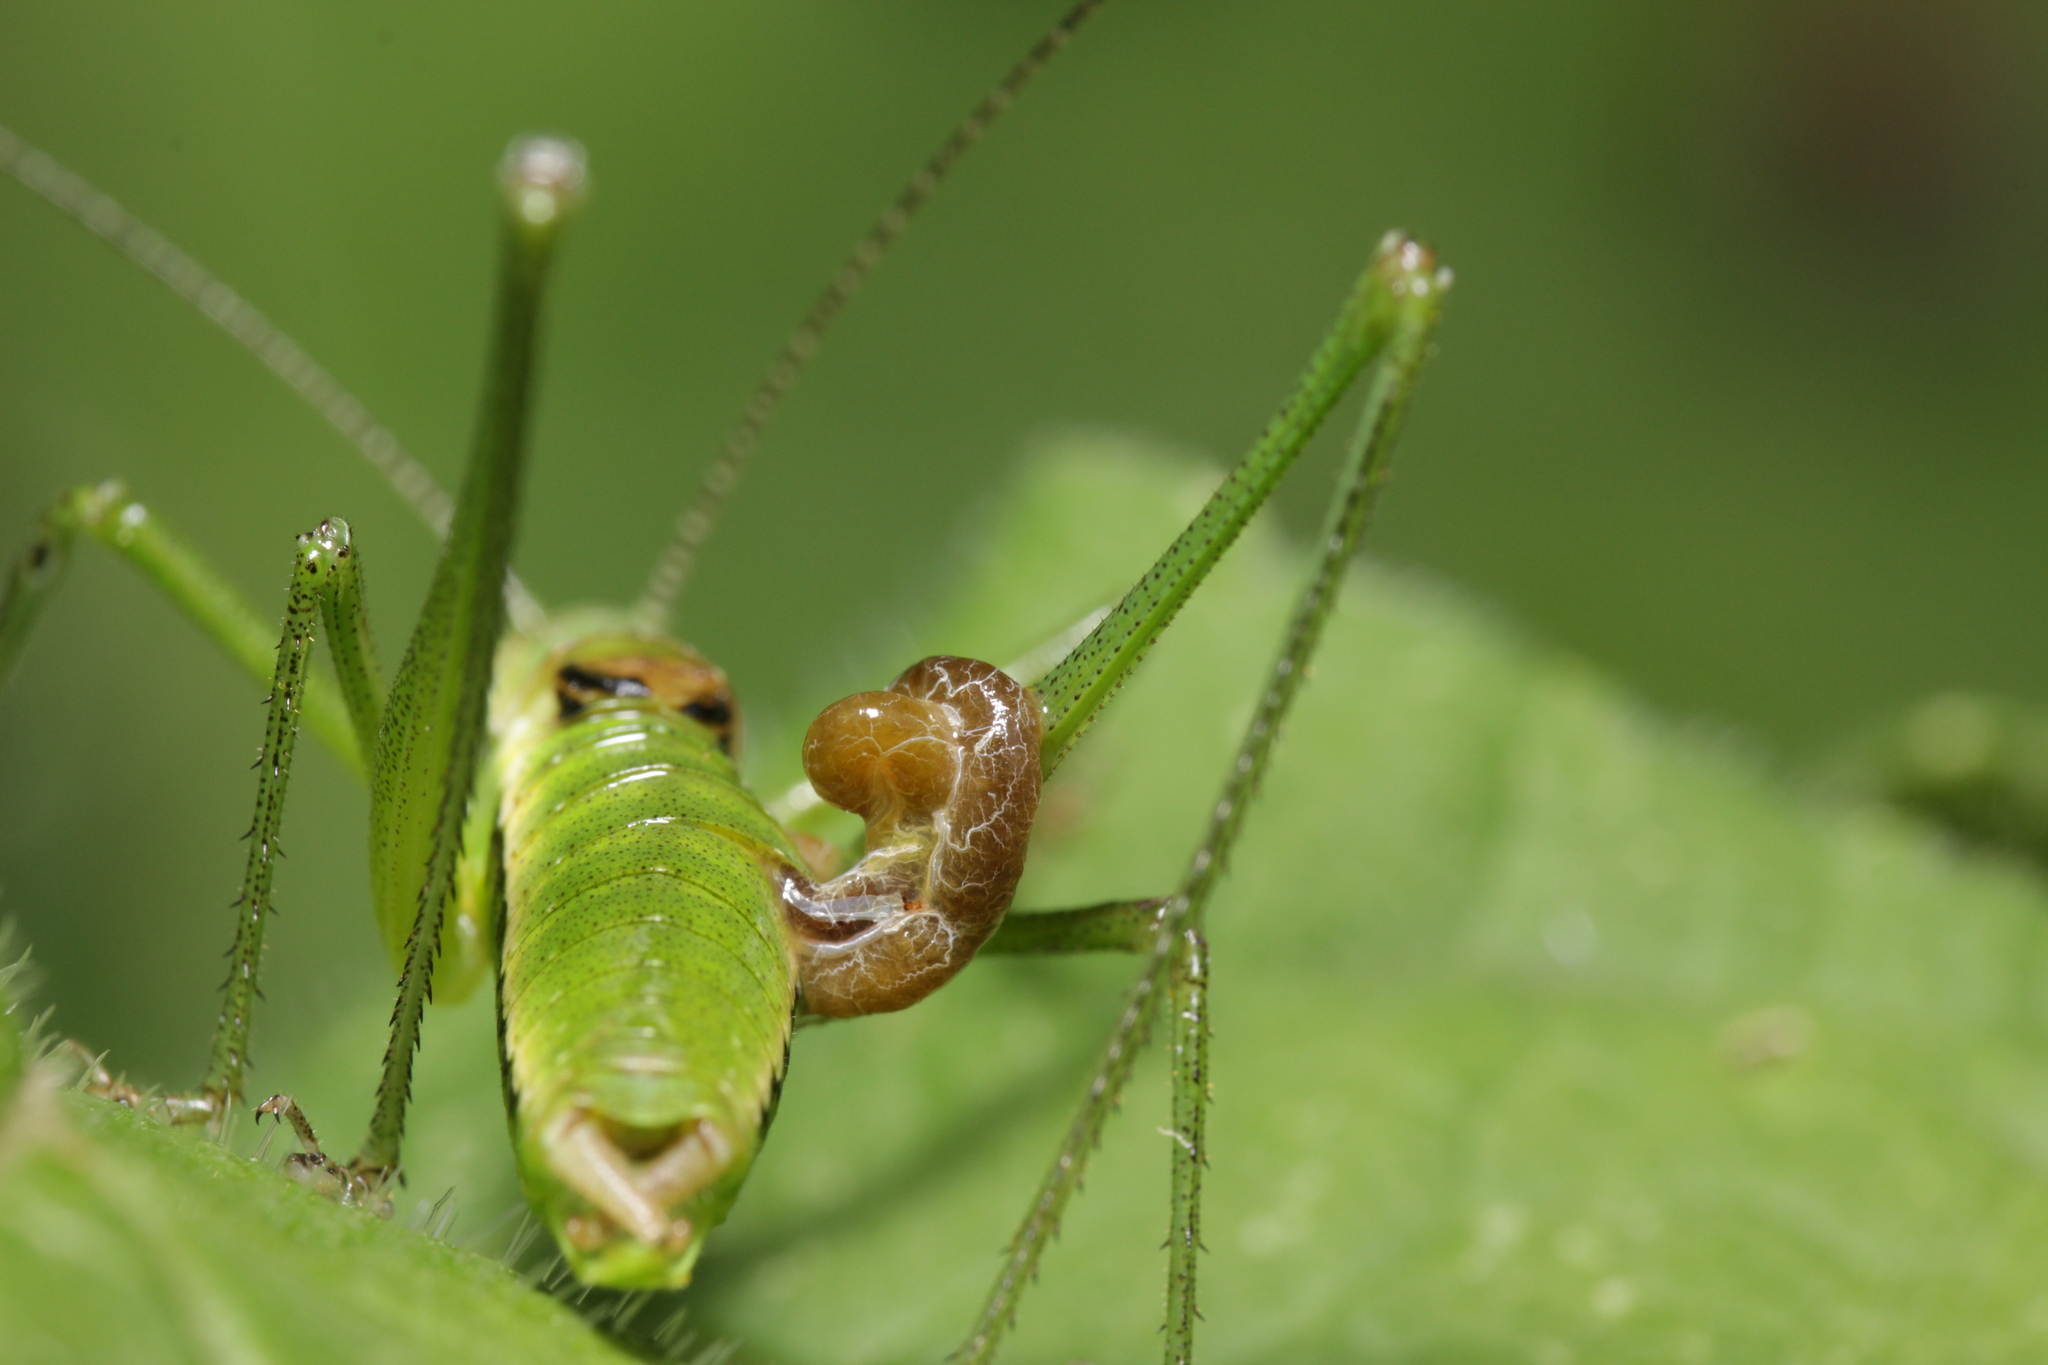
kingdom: Animalia
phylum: Arthropoda
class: Insecta
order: Orthoptera
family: Tettigoniidae
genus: Leptophyes
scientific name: Leptophyes boscii
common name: Balkan speckled bush-cricket
